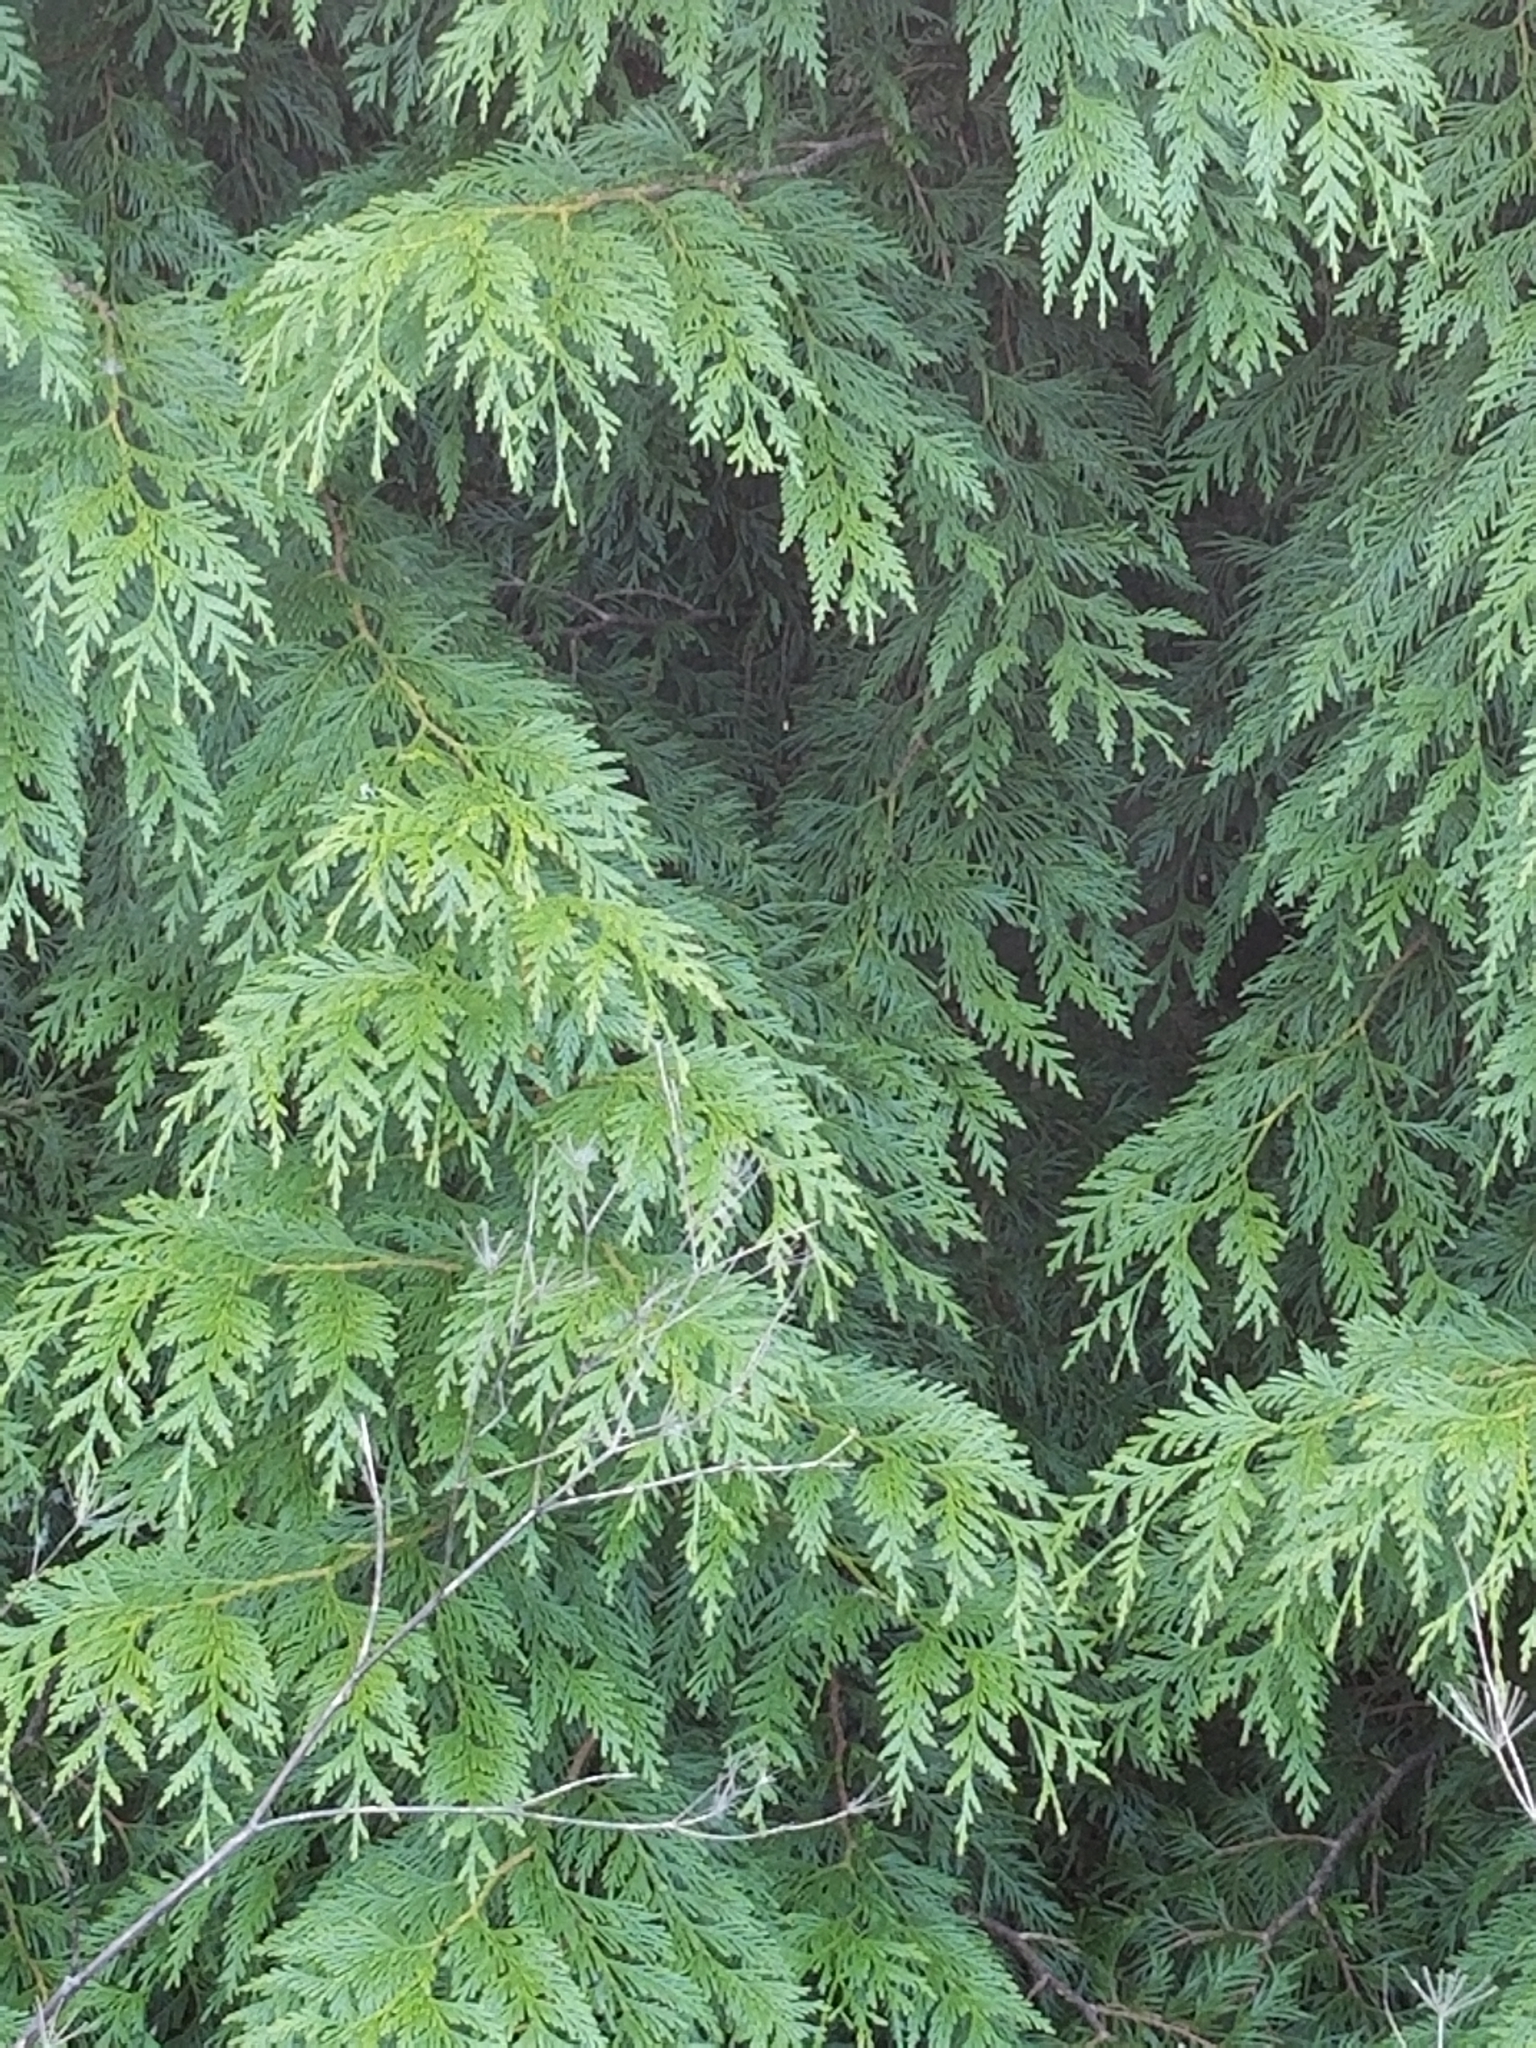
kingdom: Plantae
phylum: Tracheophyta
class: Pinopsida
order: Pinales
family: Cupressaceae
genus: Thuja
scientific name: Thuja plicata
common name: Western red-cedar
